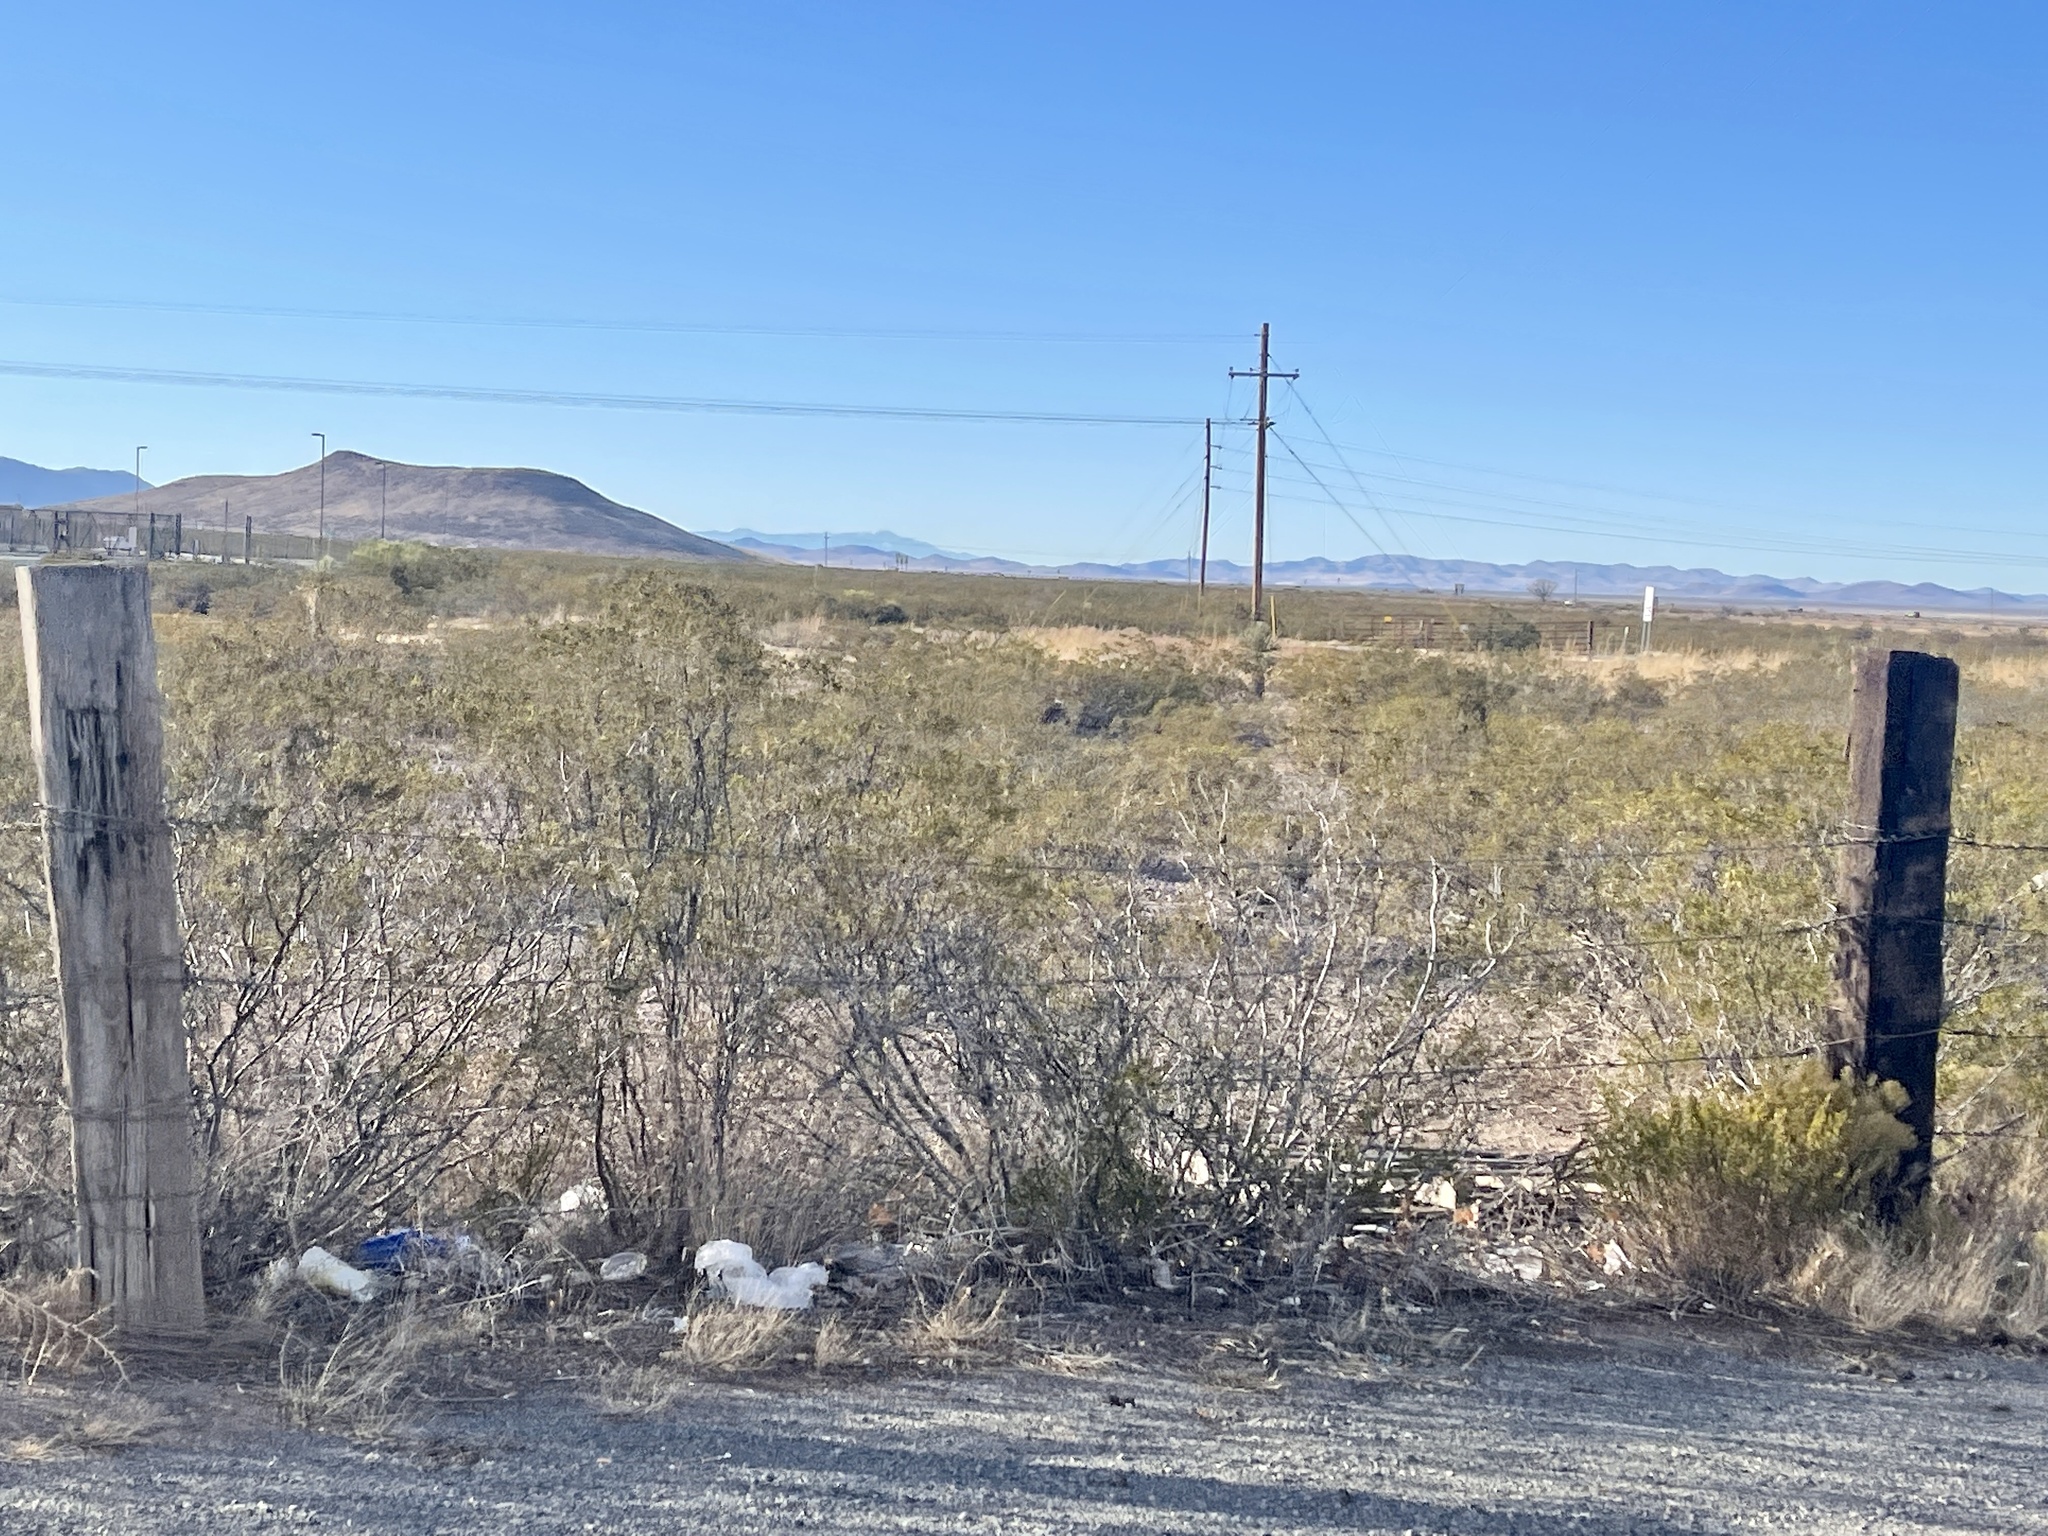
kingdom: Plantae
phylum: Tracheophyta
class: Magnoliopsida
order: Zygophyllales
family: Zygophyllaceae
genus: Larrea
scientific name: Larrea tridentata
